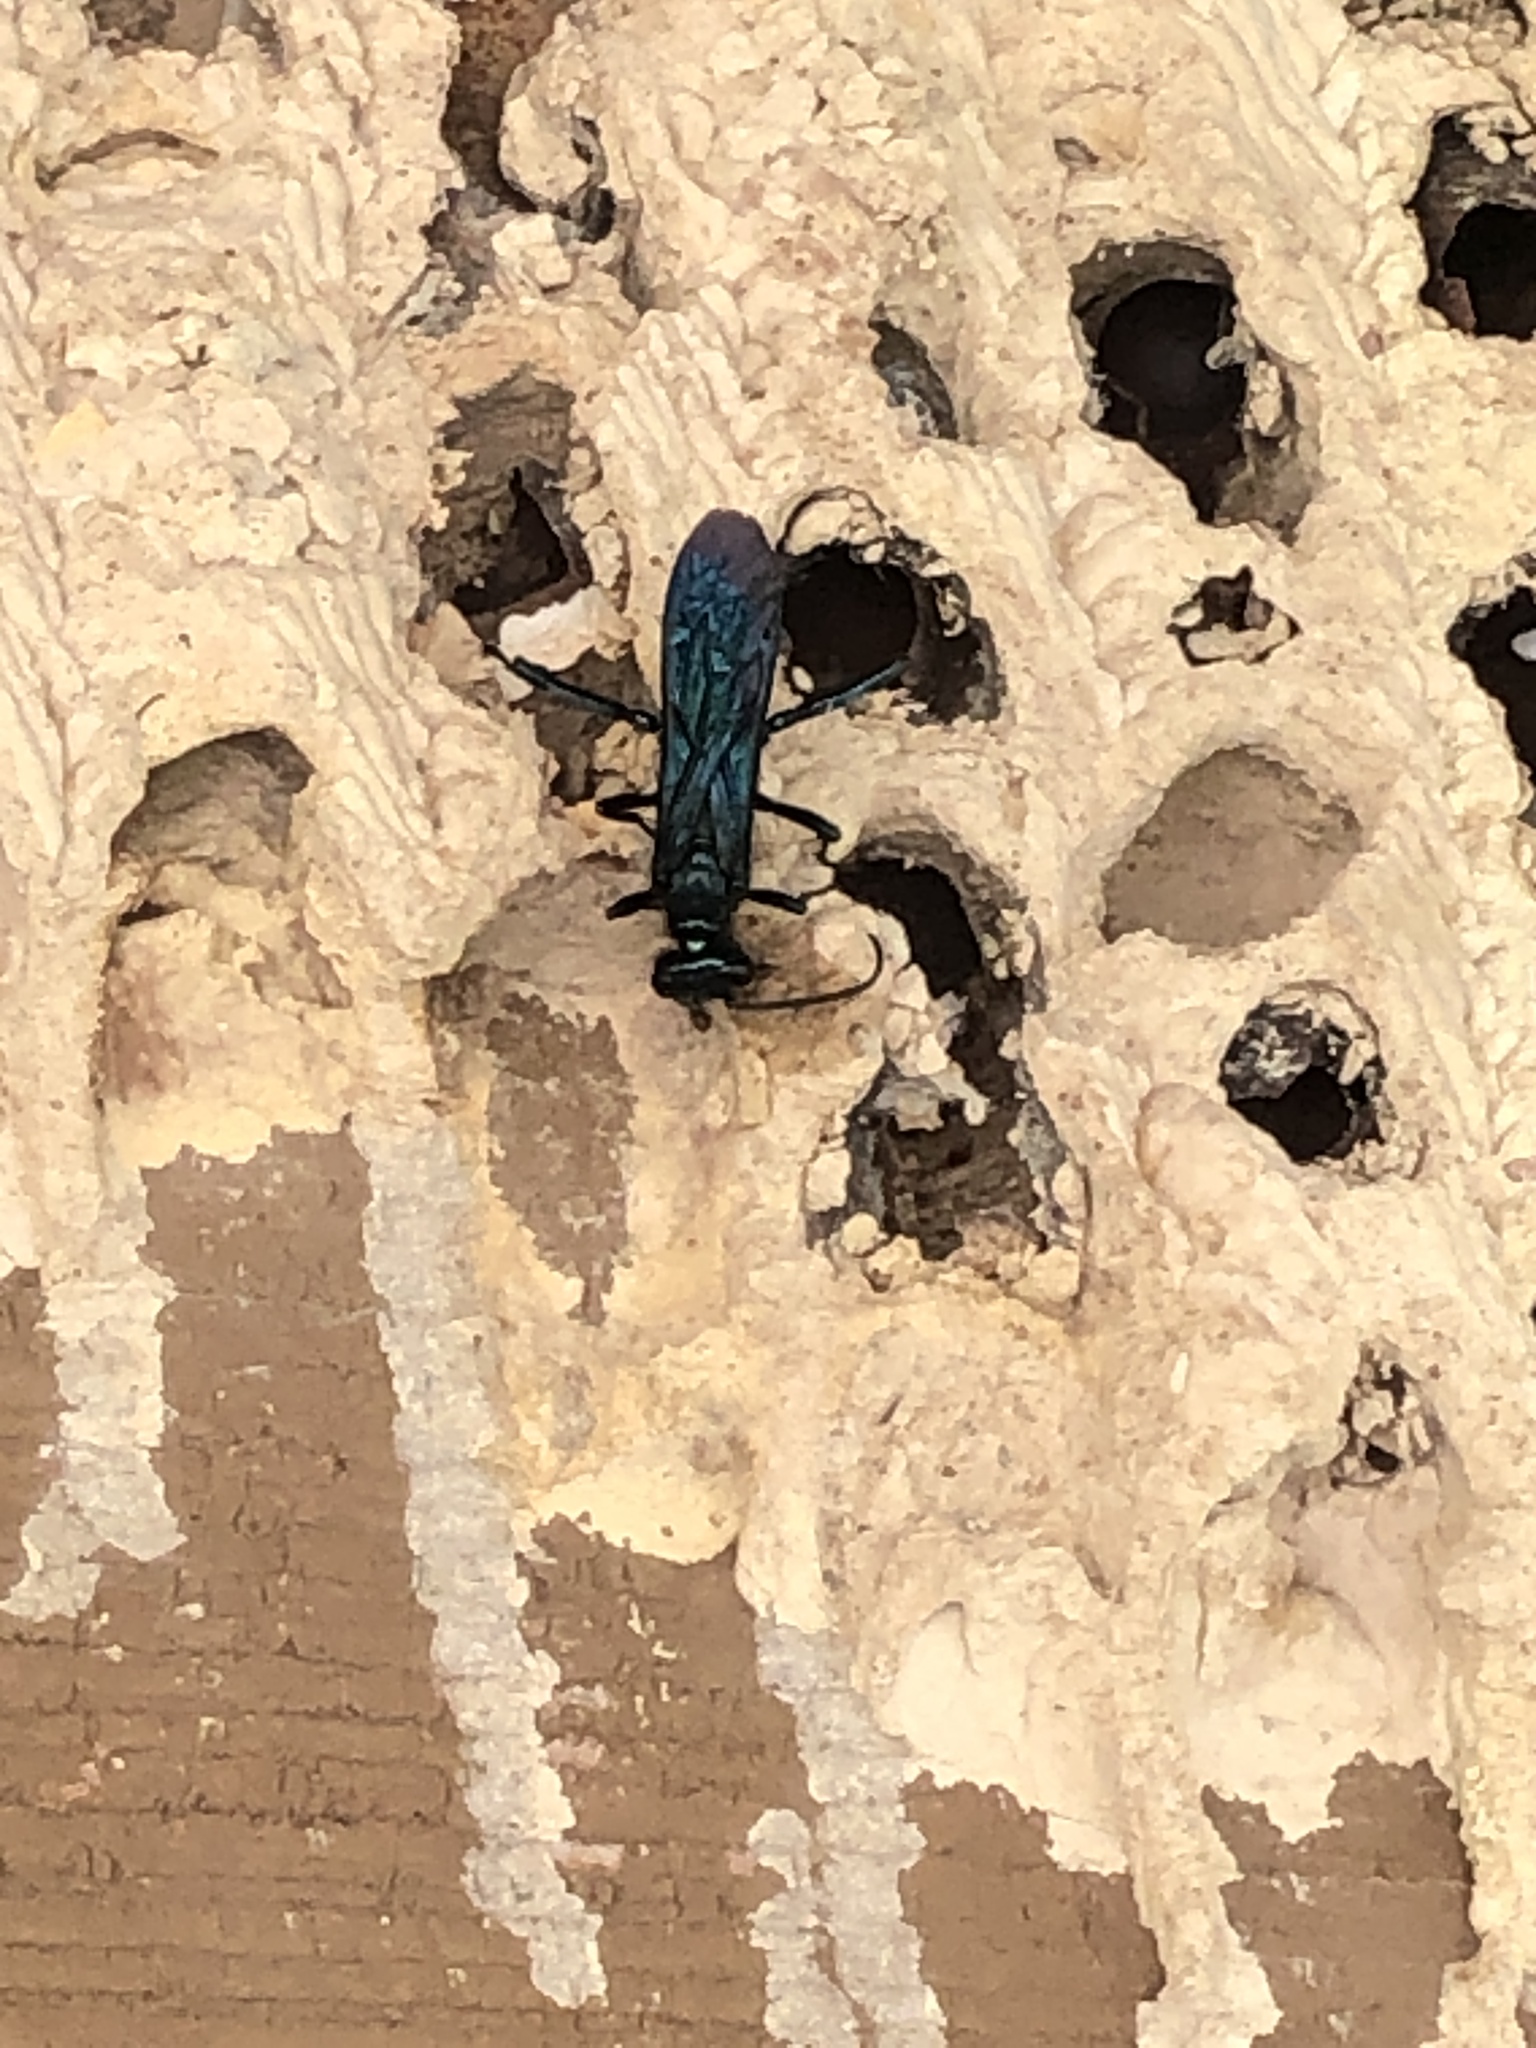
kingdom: Animalia
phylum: Arthropoda
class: Insecta
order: Hymenoptera
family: Crabronidae
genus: Trypoxylon
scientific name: Trypoxylon politum
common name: Organ-pipe mud-dauber wasp
